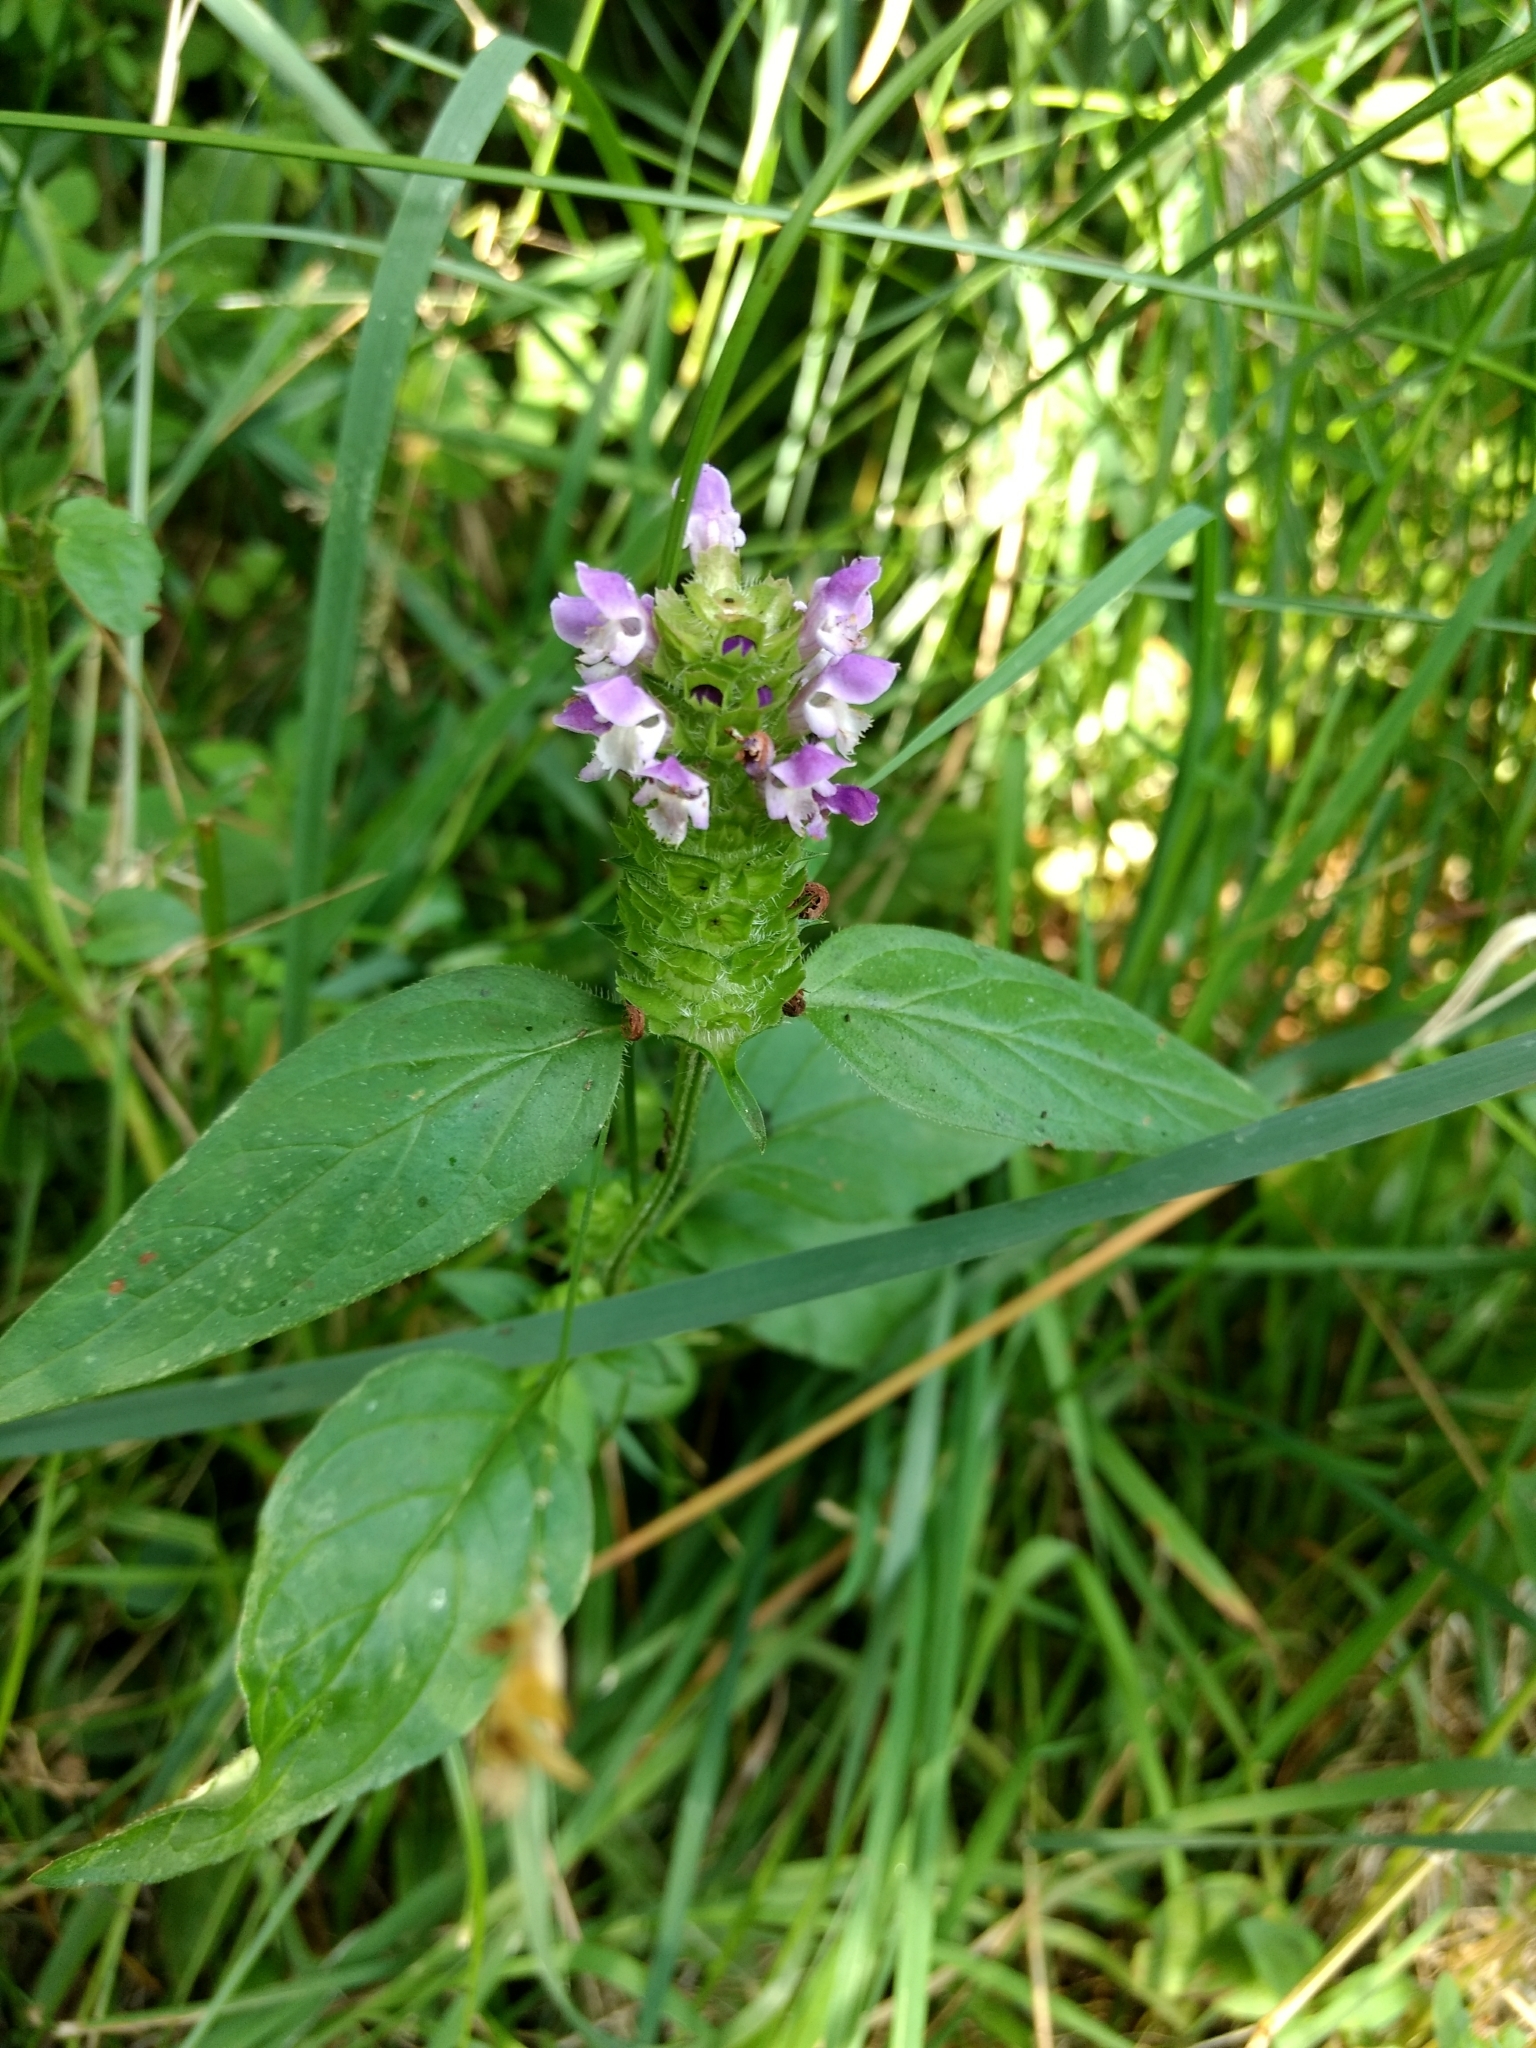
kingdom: Plantae
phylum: Tracheophyta
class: Magnoliopsida
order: Lamiales
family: Lamiaceae
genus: Prunella
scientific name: Prunella vulgaris
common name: Heal-all
